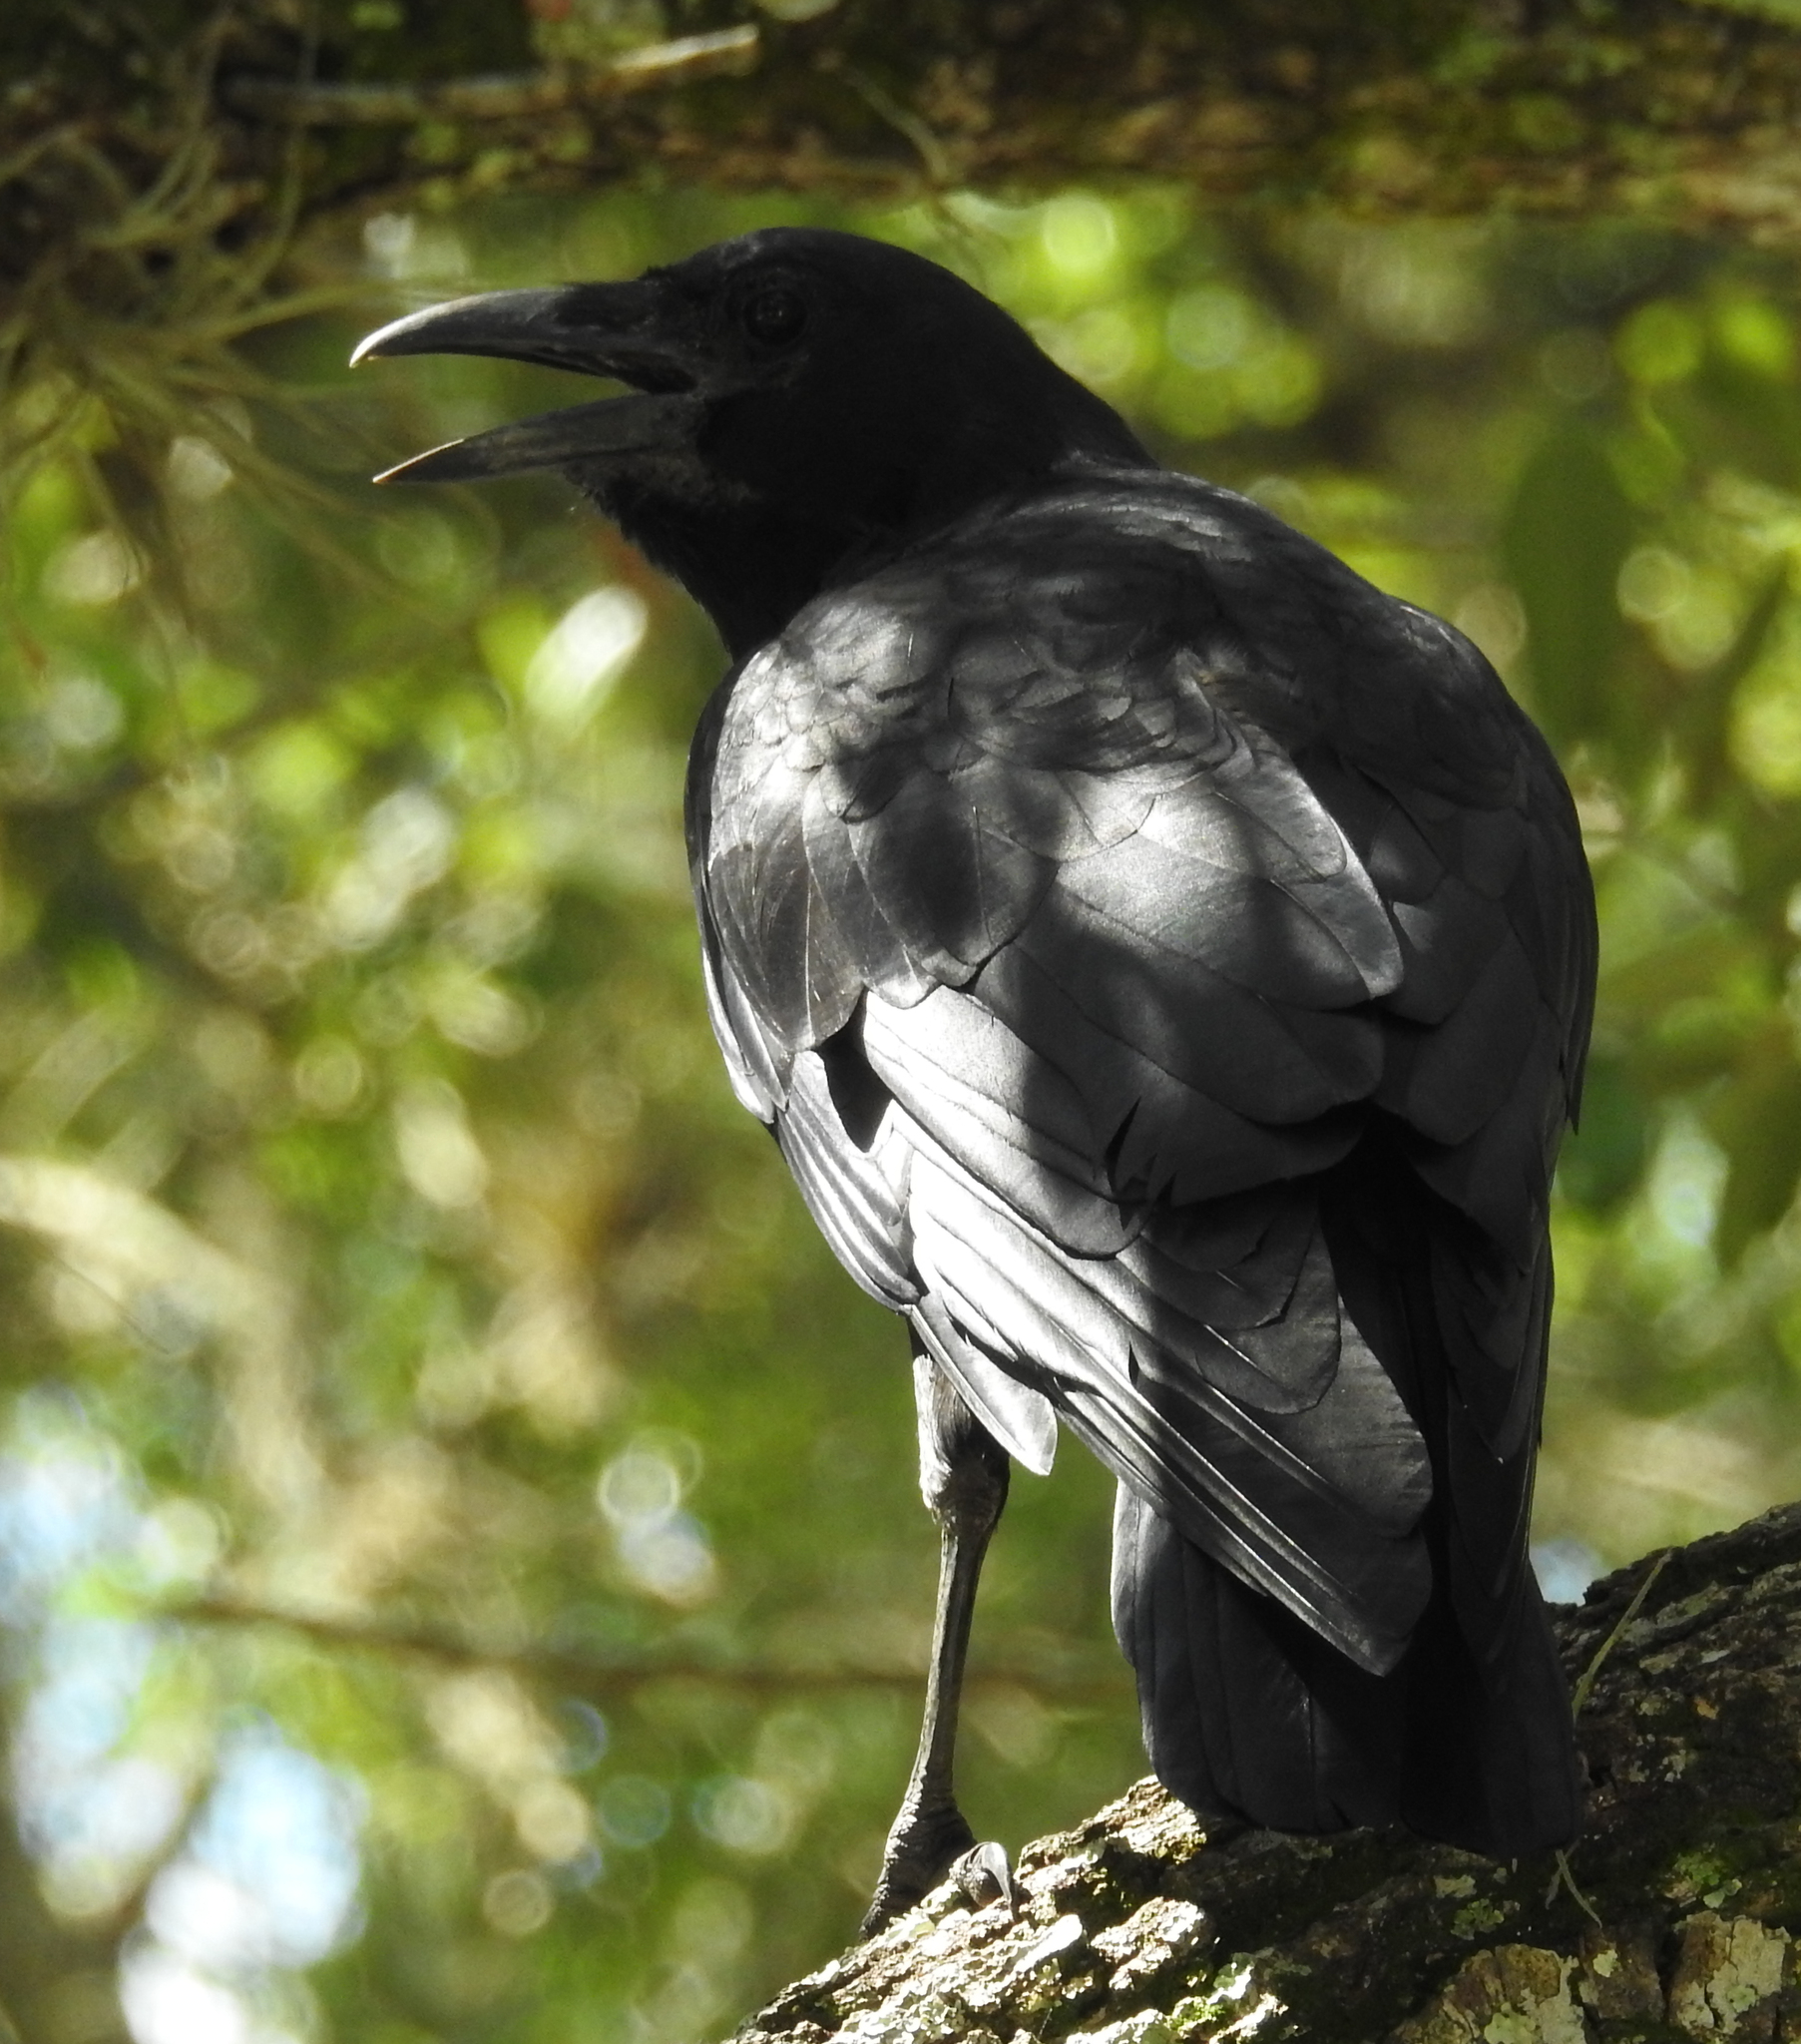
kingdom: Animalia
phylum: Chordata
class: Aves
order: Passeriformes
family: Corvidae
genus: Corvus
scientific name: Corvus brachyrhynchos
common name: American crow
